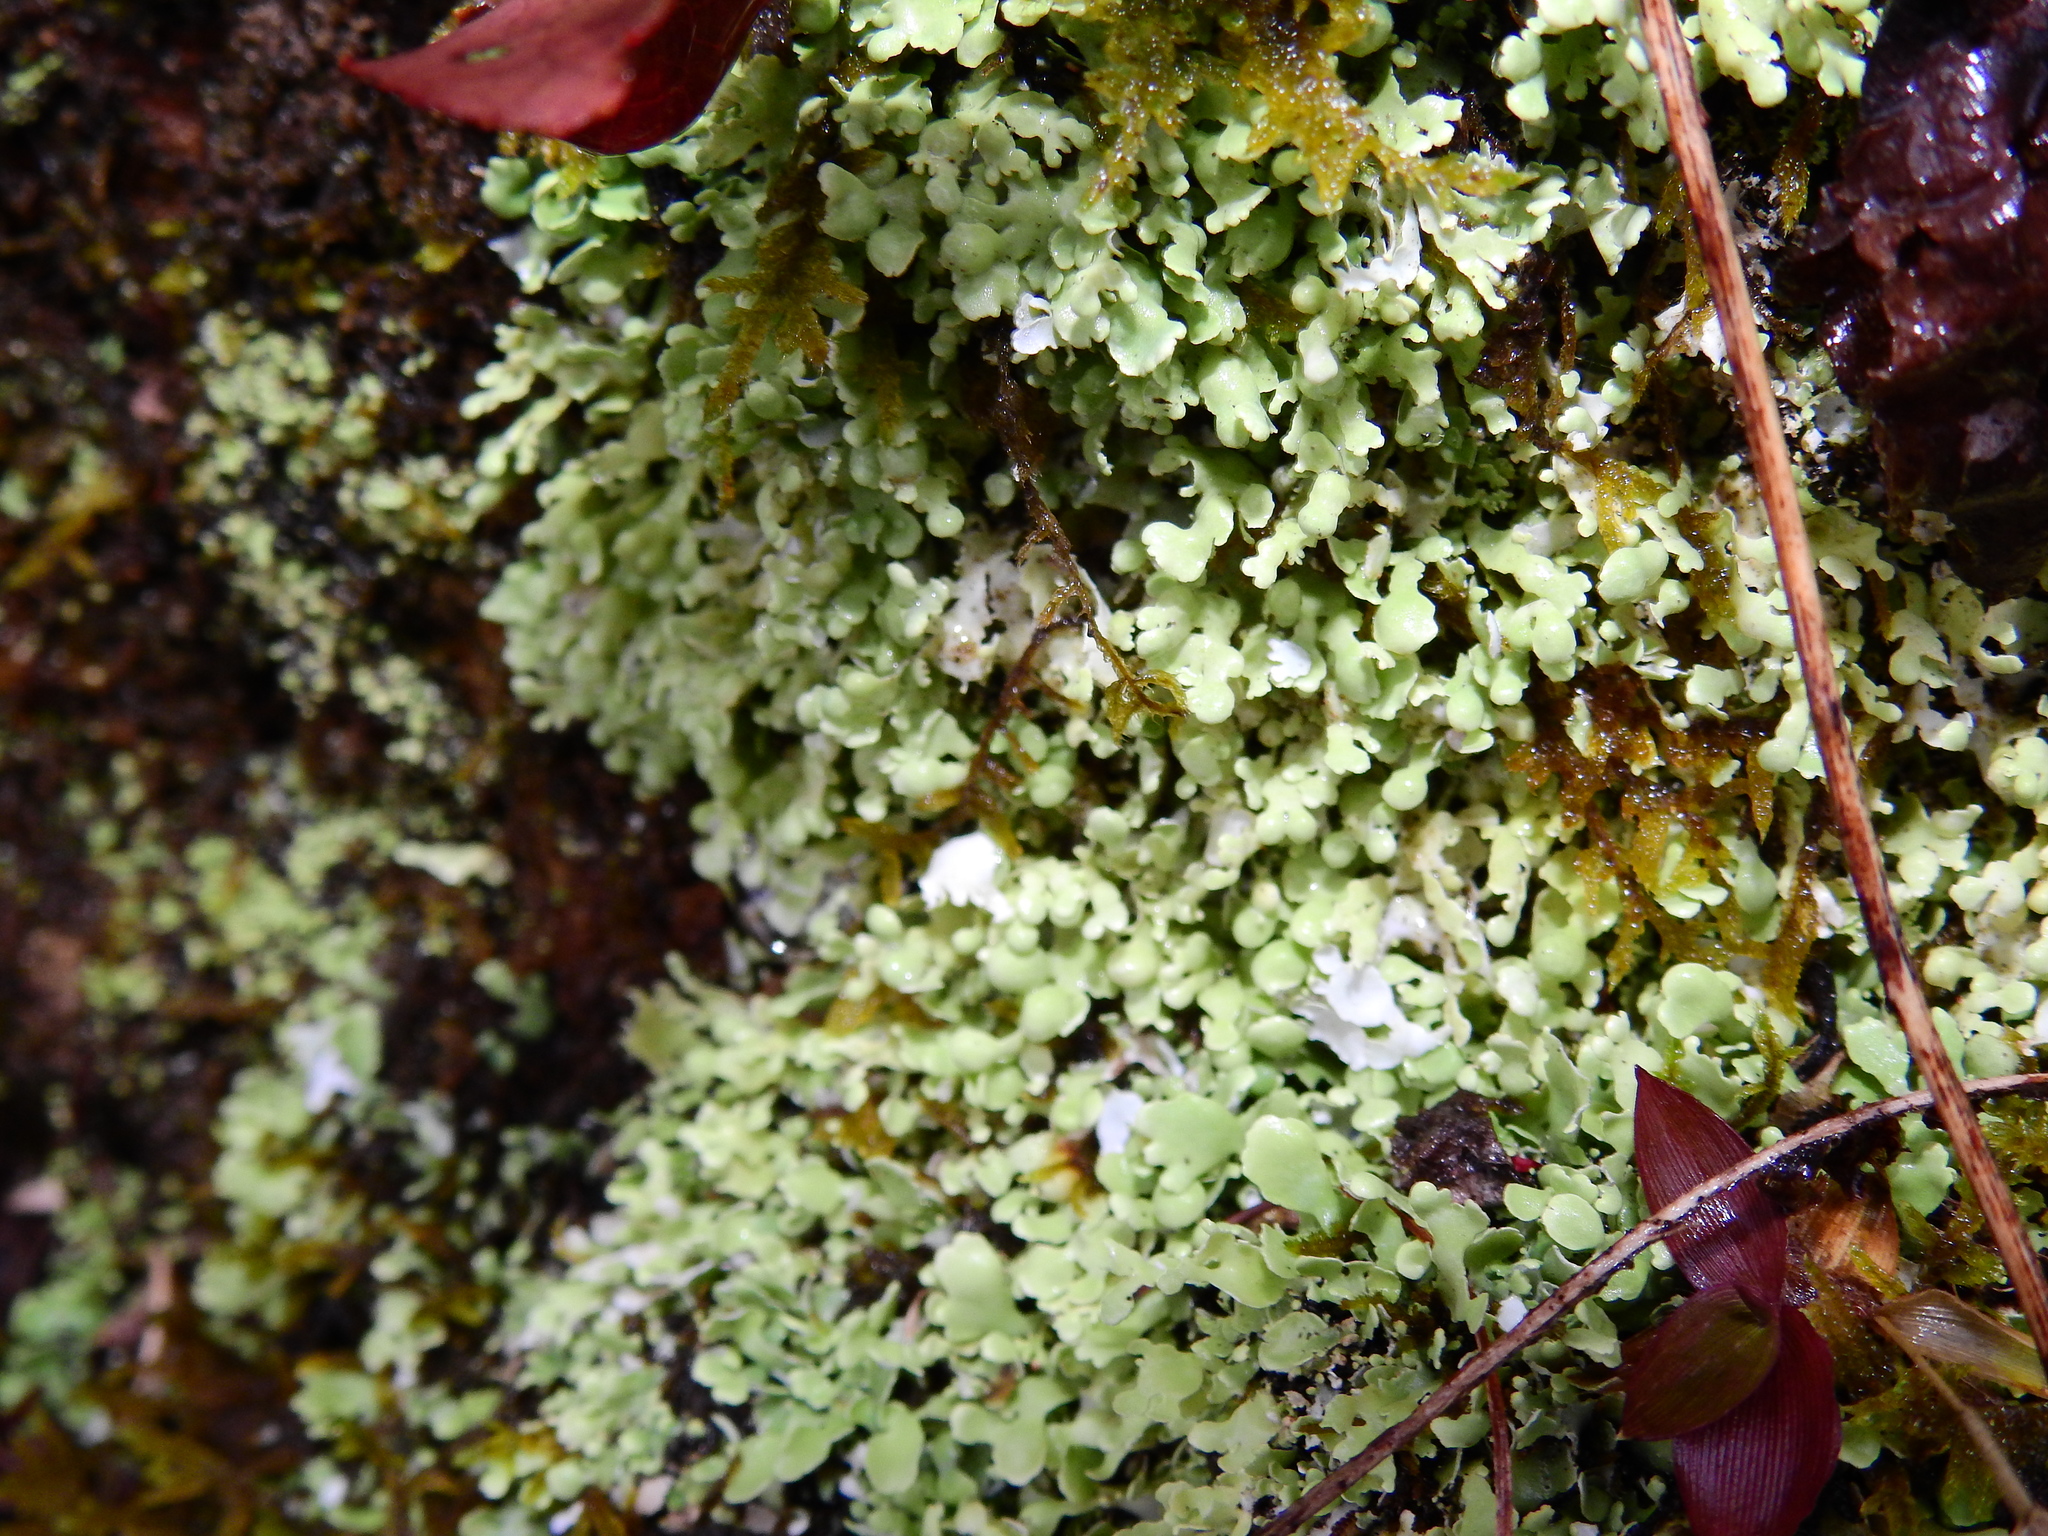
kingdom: Fungi
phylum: Ascomycota
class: Lecanoromycetes
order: Lecanorales
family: Cladoniaceae
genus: Cladonia
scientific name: Cladonia apodocarpa
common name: Stalkless cladonia
